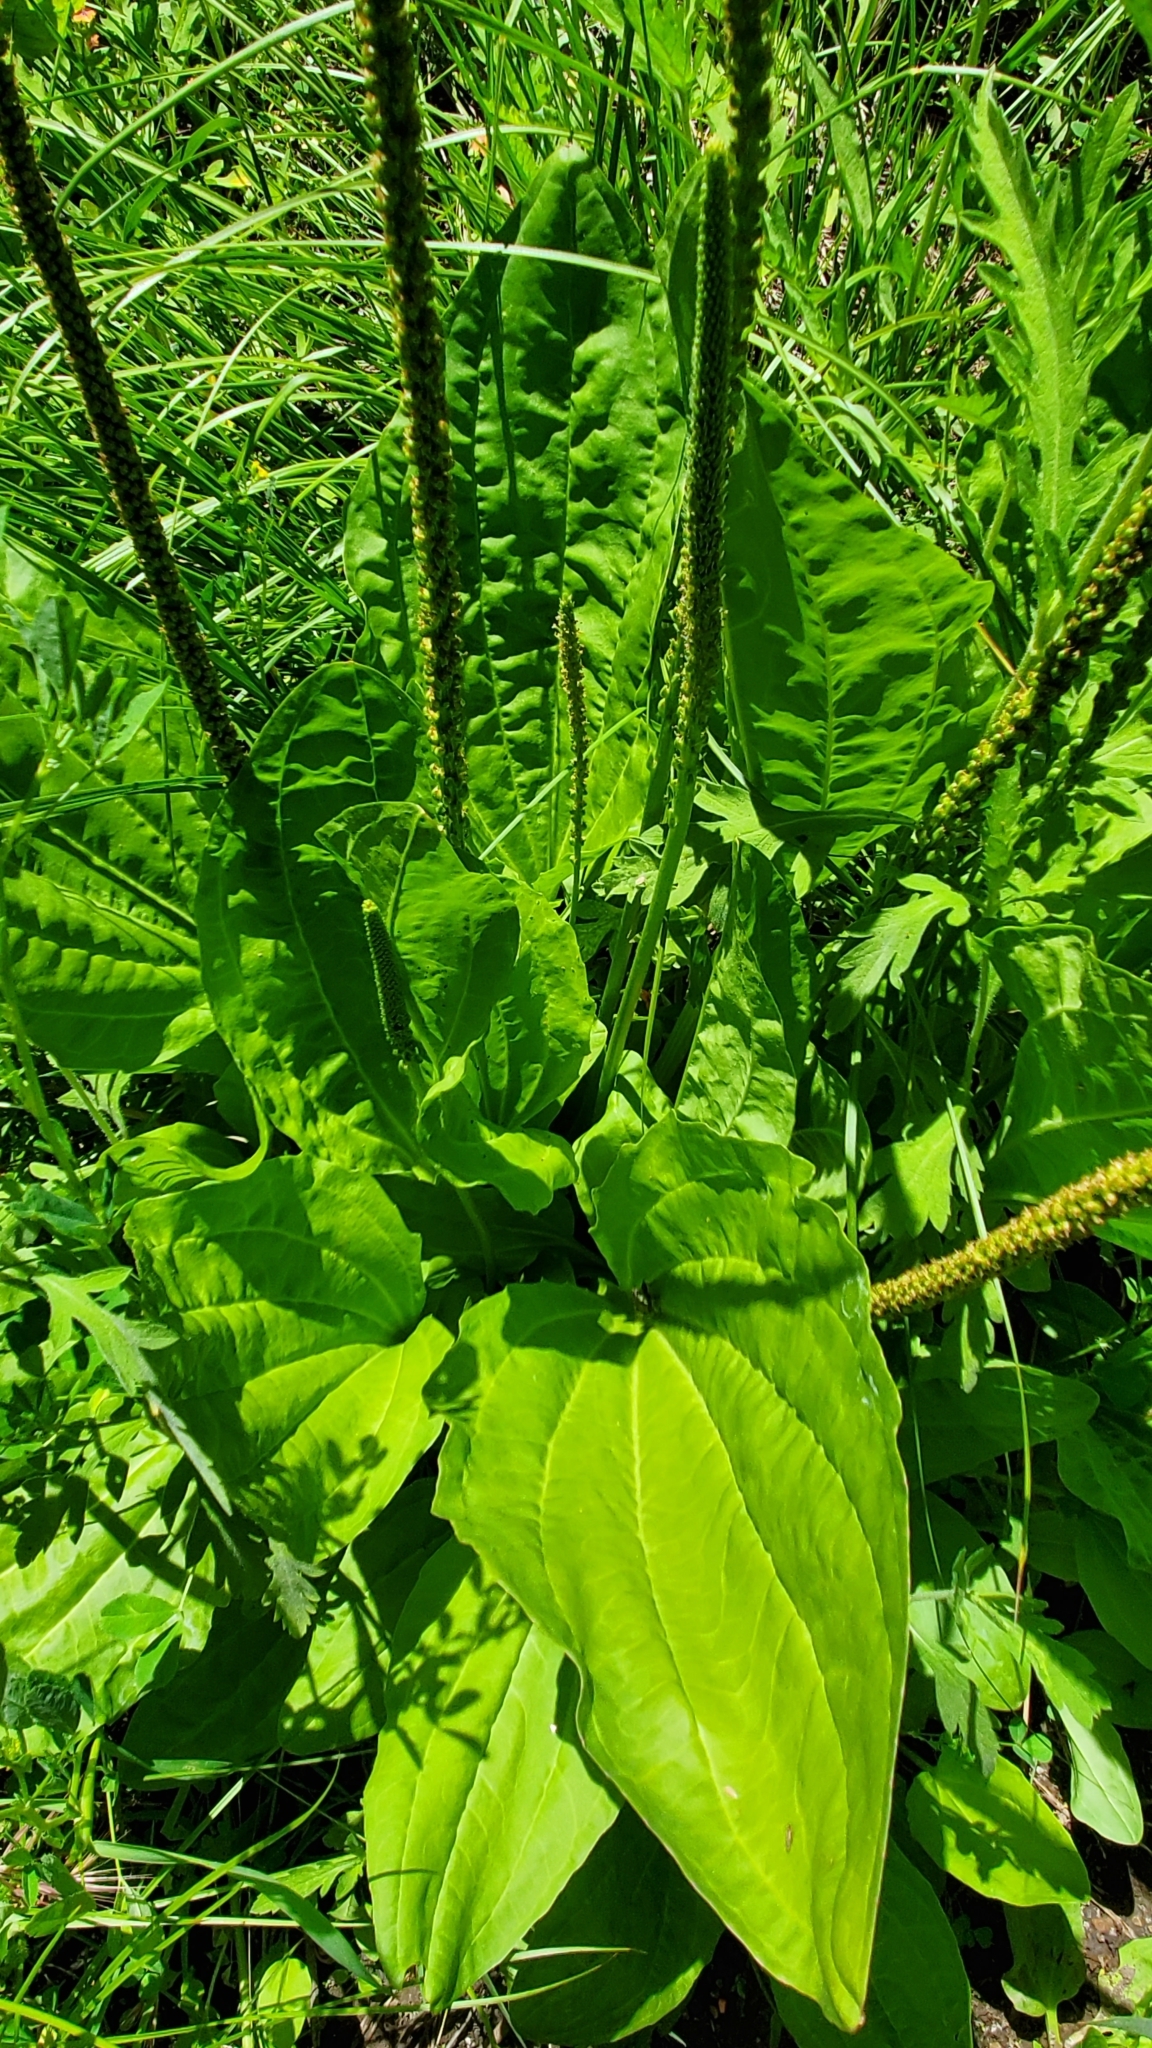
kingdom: Plantae
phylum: Tracheophyta
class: Magnoliopsida
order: Lamiales
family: Plantaginaceae
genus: Plantago
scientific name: Plantago major
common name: Common plantain
